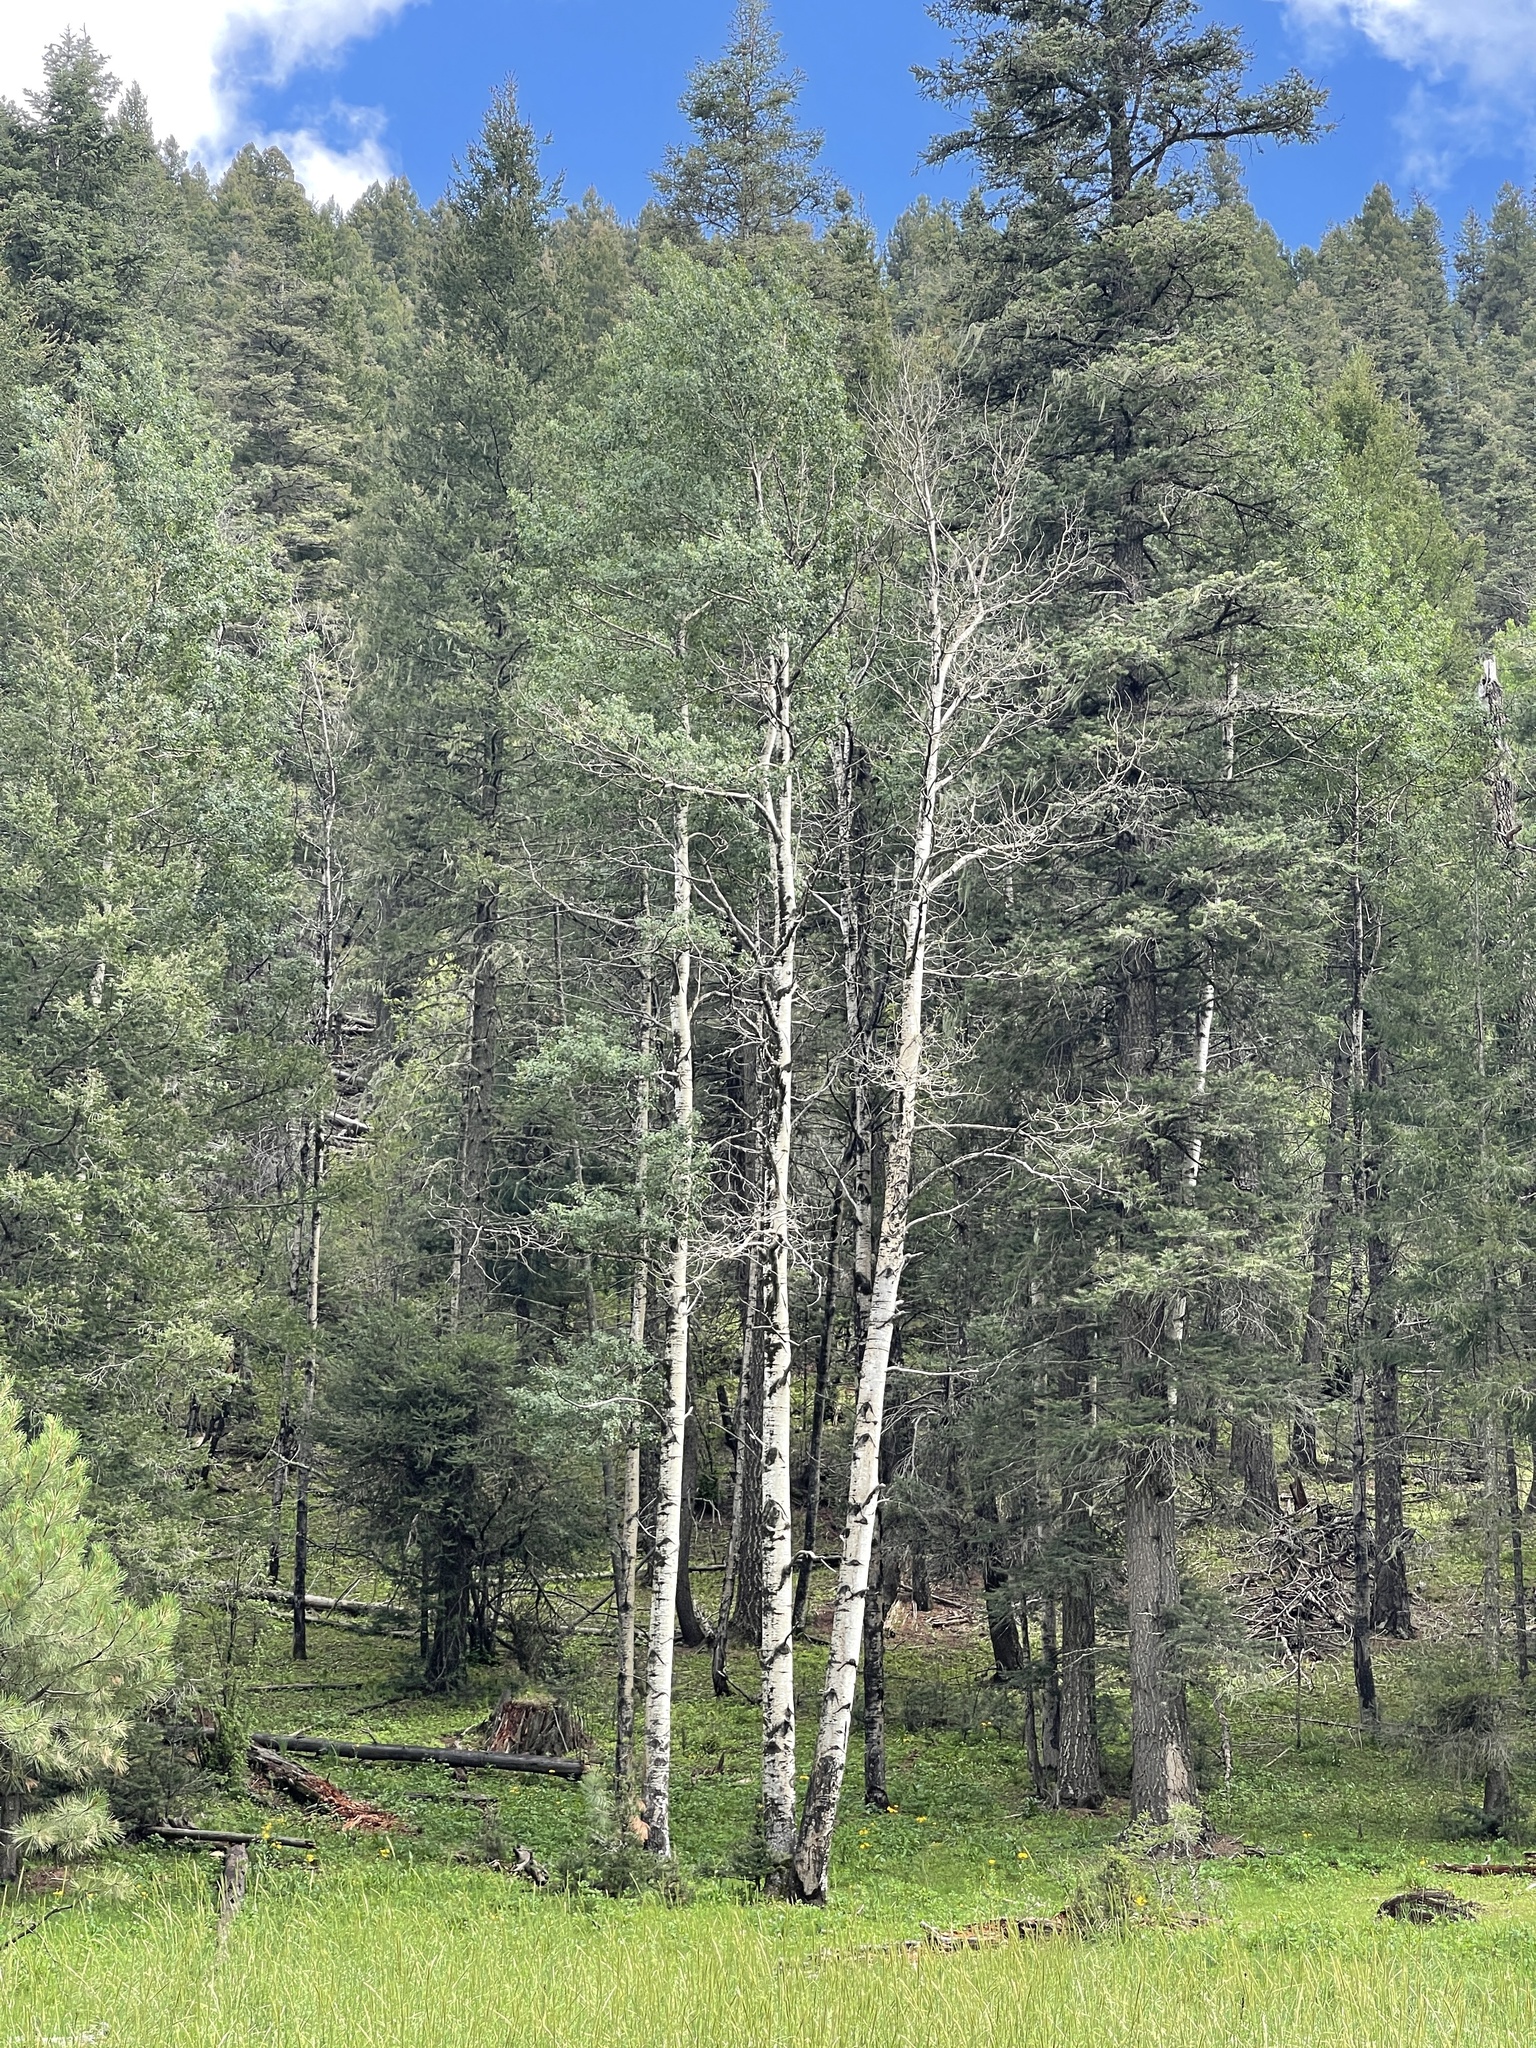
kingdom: Plantae
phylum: Tracheophyta
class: Magnoliopsida
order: Malpighiales
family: Salicaceae
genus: Populus
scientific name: Populus tremuloides
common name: Quaking aspen
